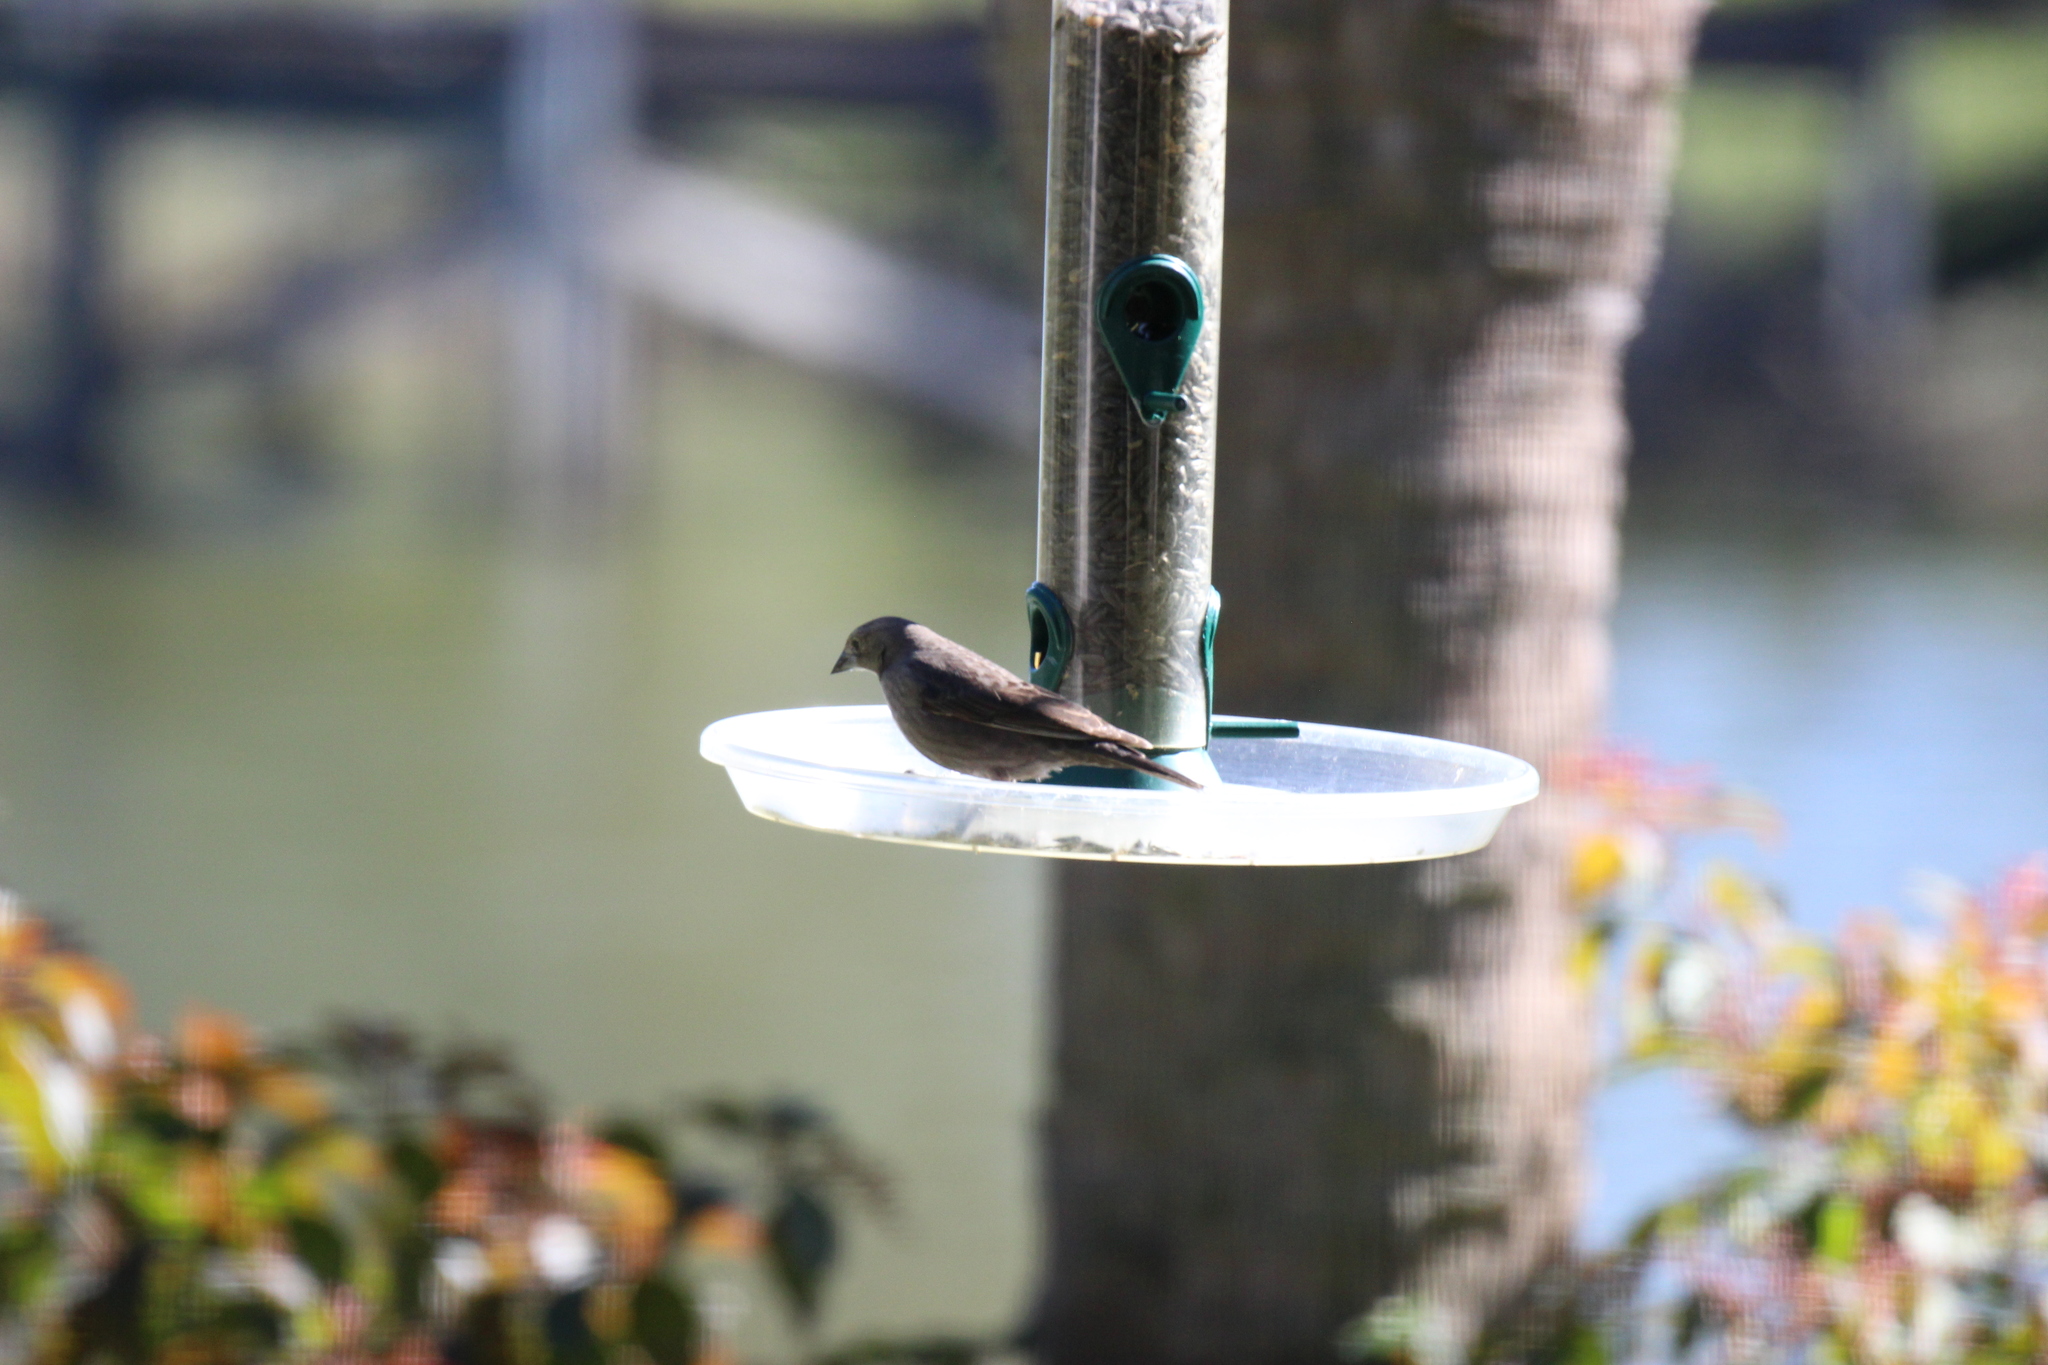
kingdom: Animalia
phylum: Chordata
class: Aves
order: Passeriformes
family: Icteridae
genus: Molothrus
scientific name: Molothrus ater
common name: Brown-headed cowbird
